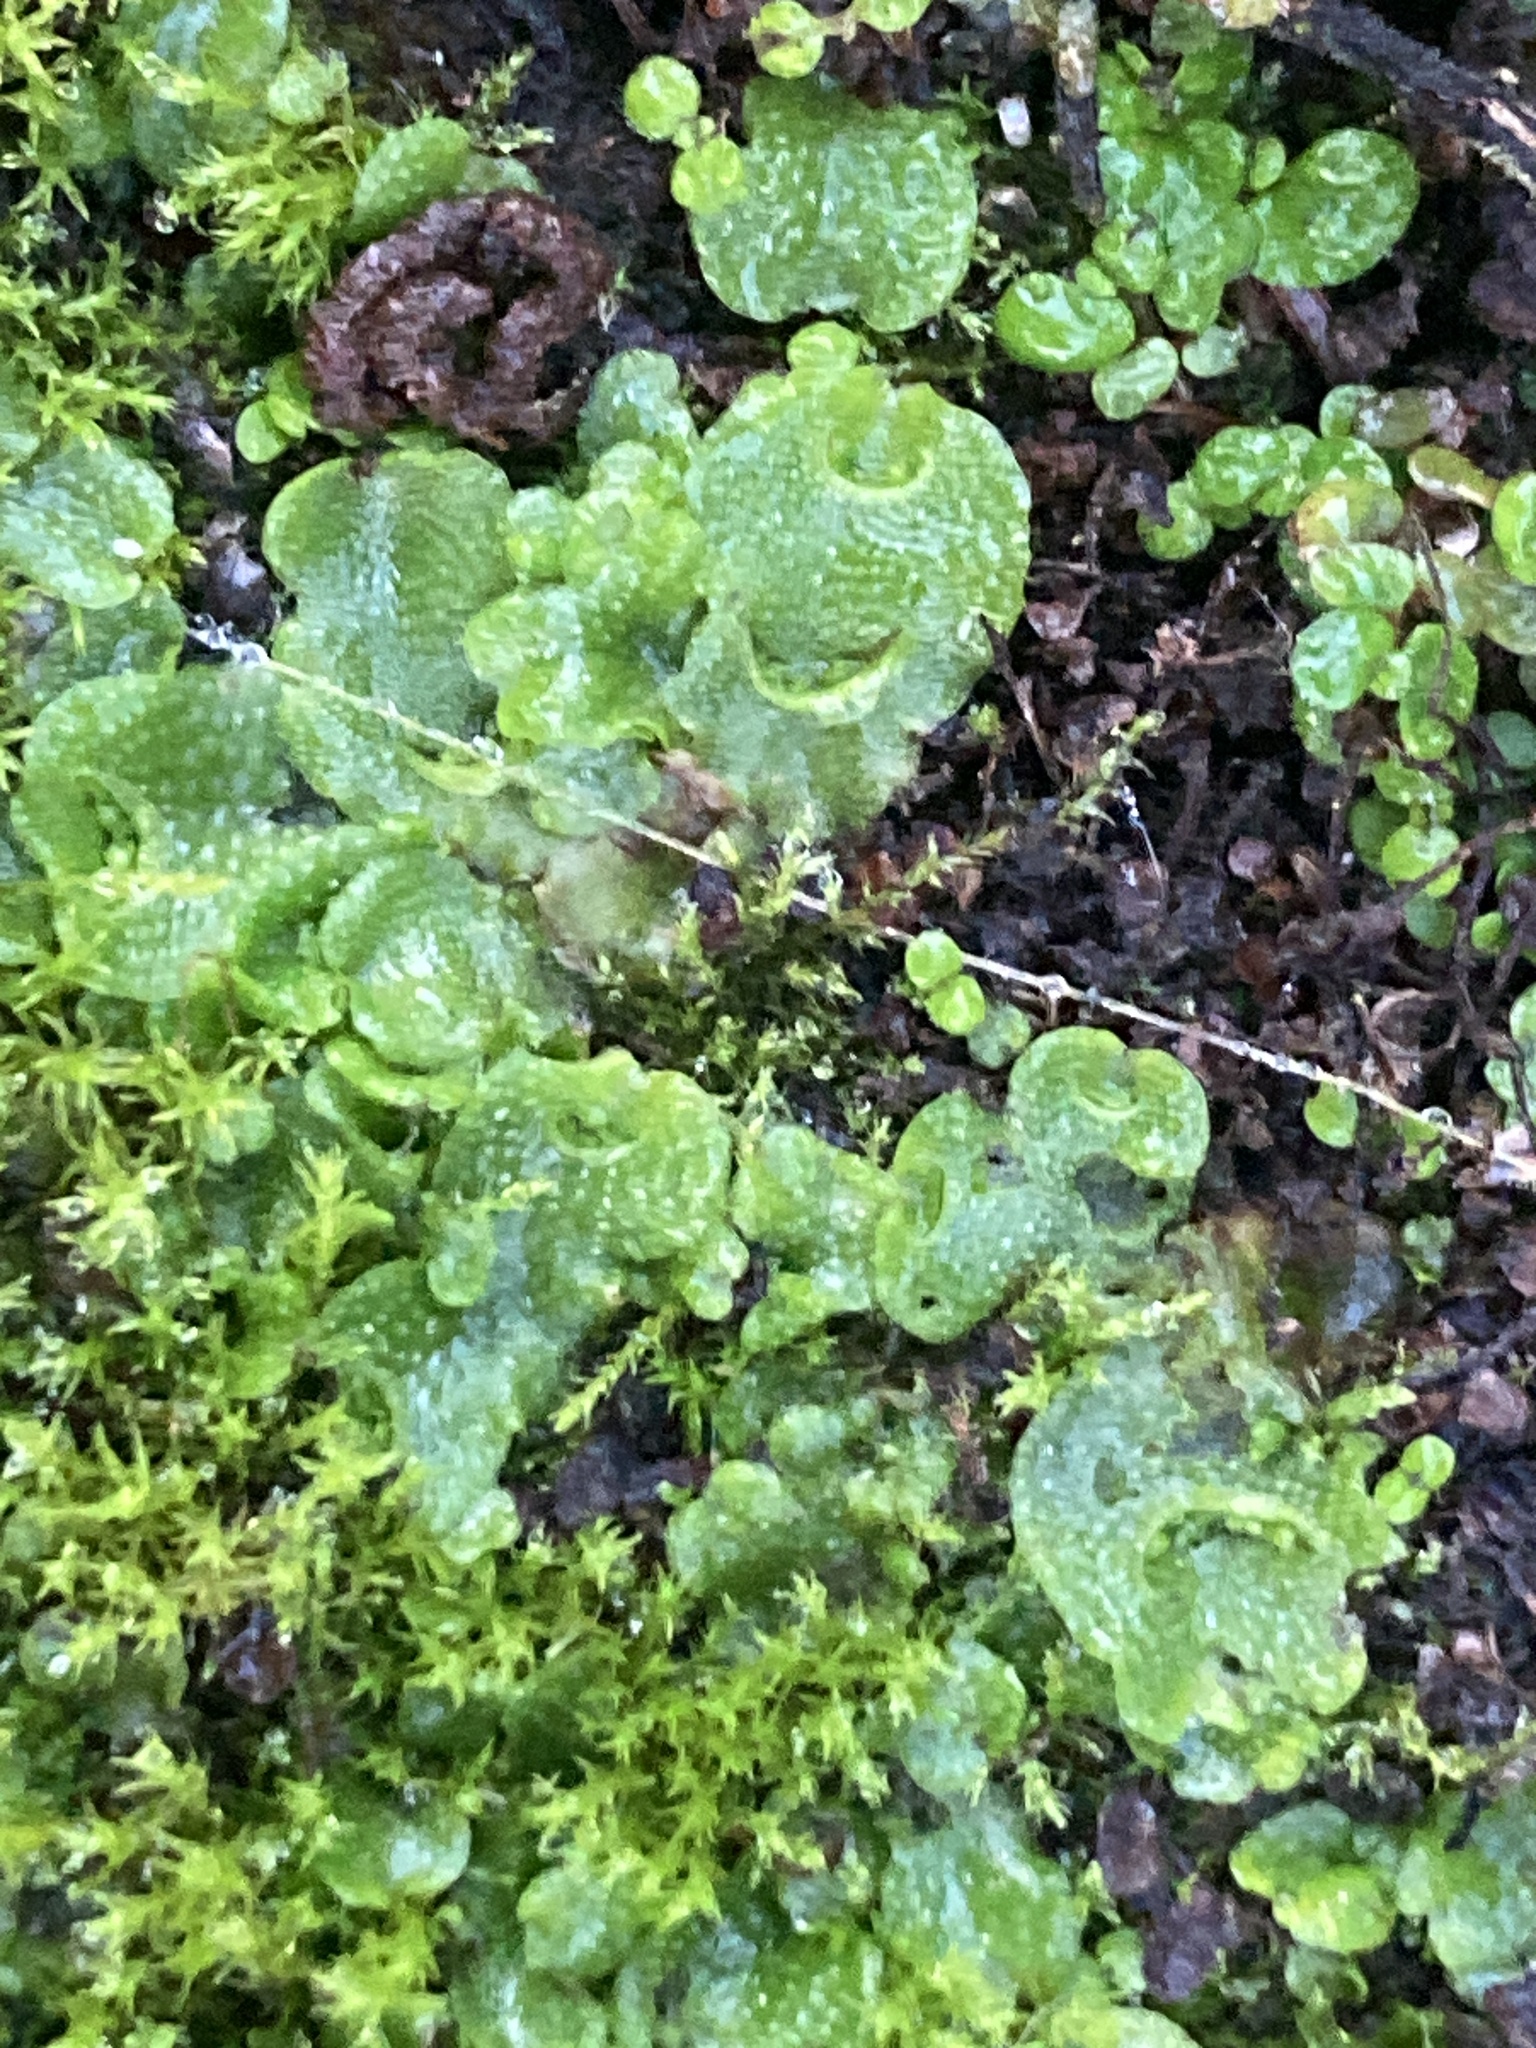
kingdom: Plantae
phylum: Marchantiophyta
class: Marchantiopsida
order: Lunulariales
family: Lunulariaceae
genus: Lunularia
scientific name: Lunularia cruciata
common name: Crescent-cup liverwort
